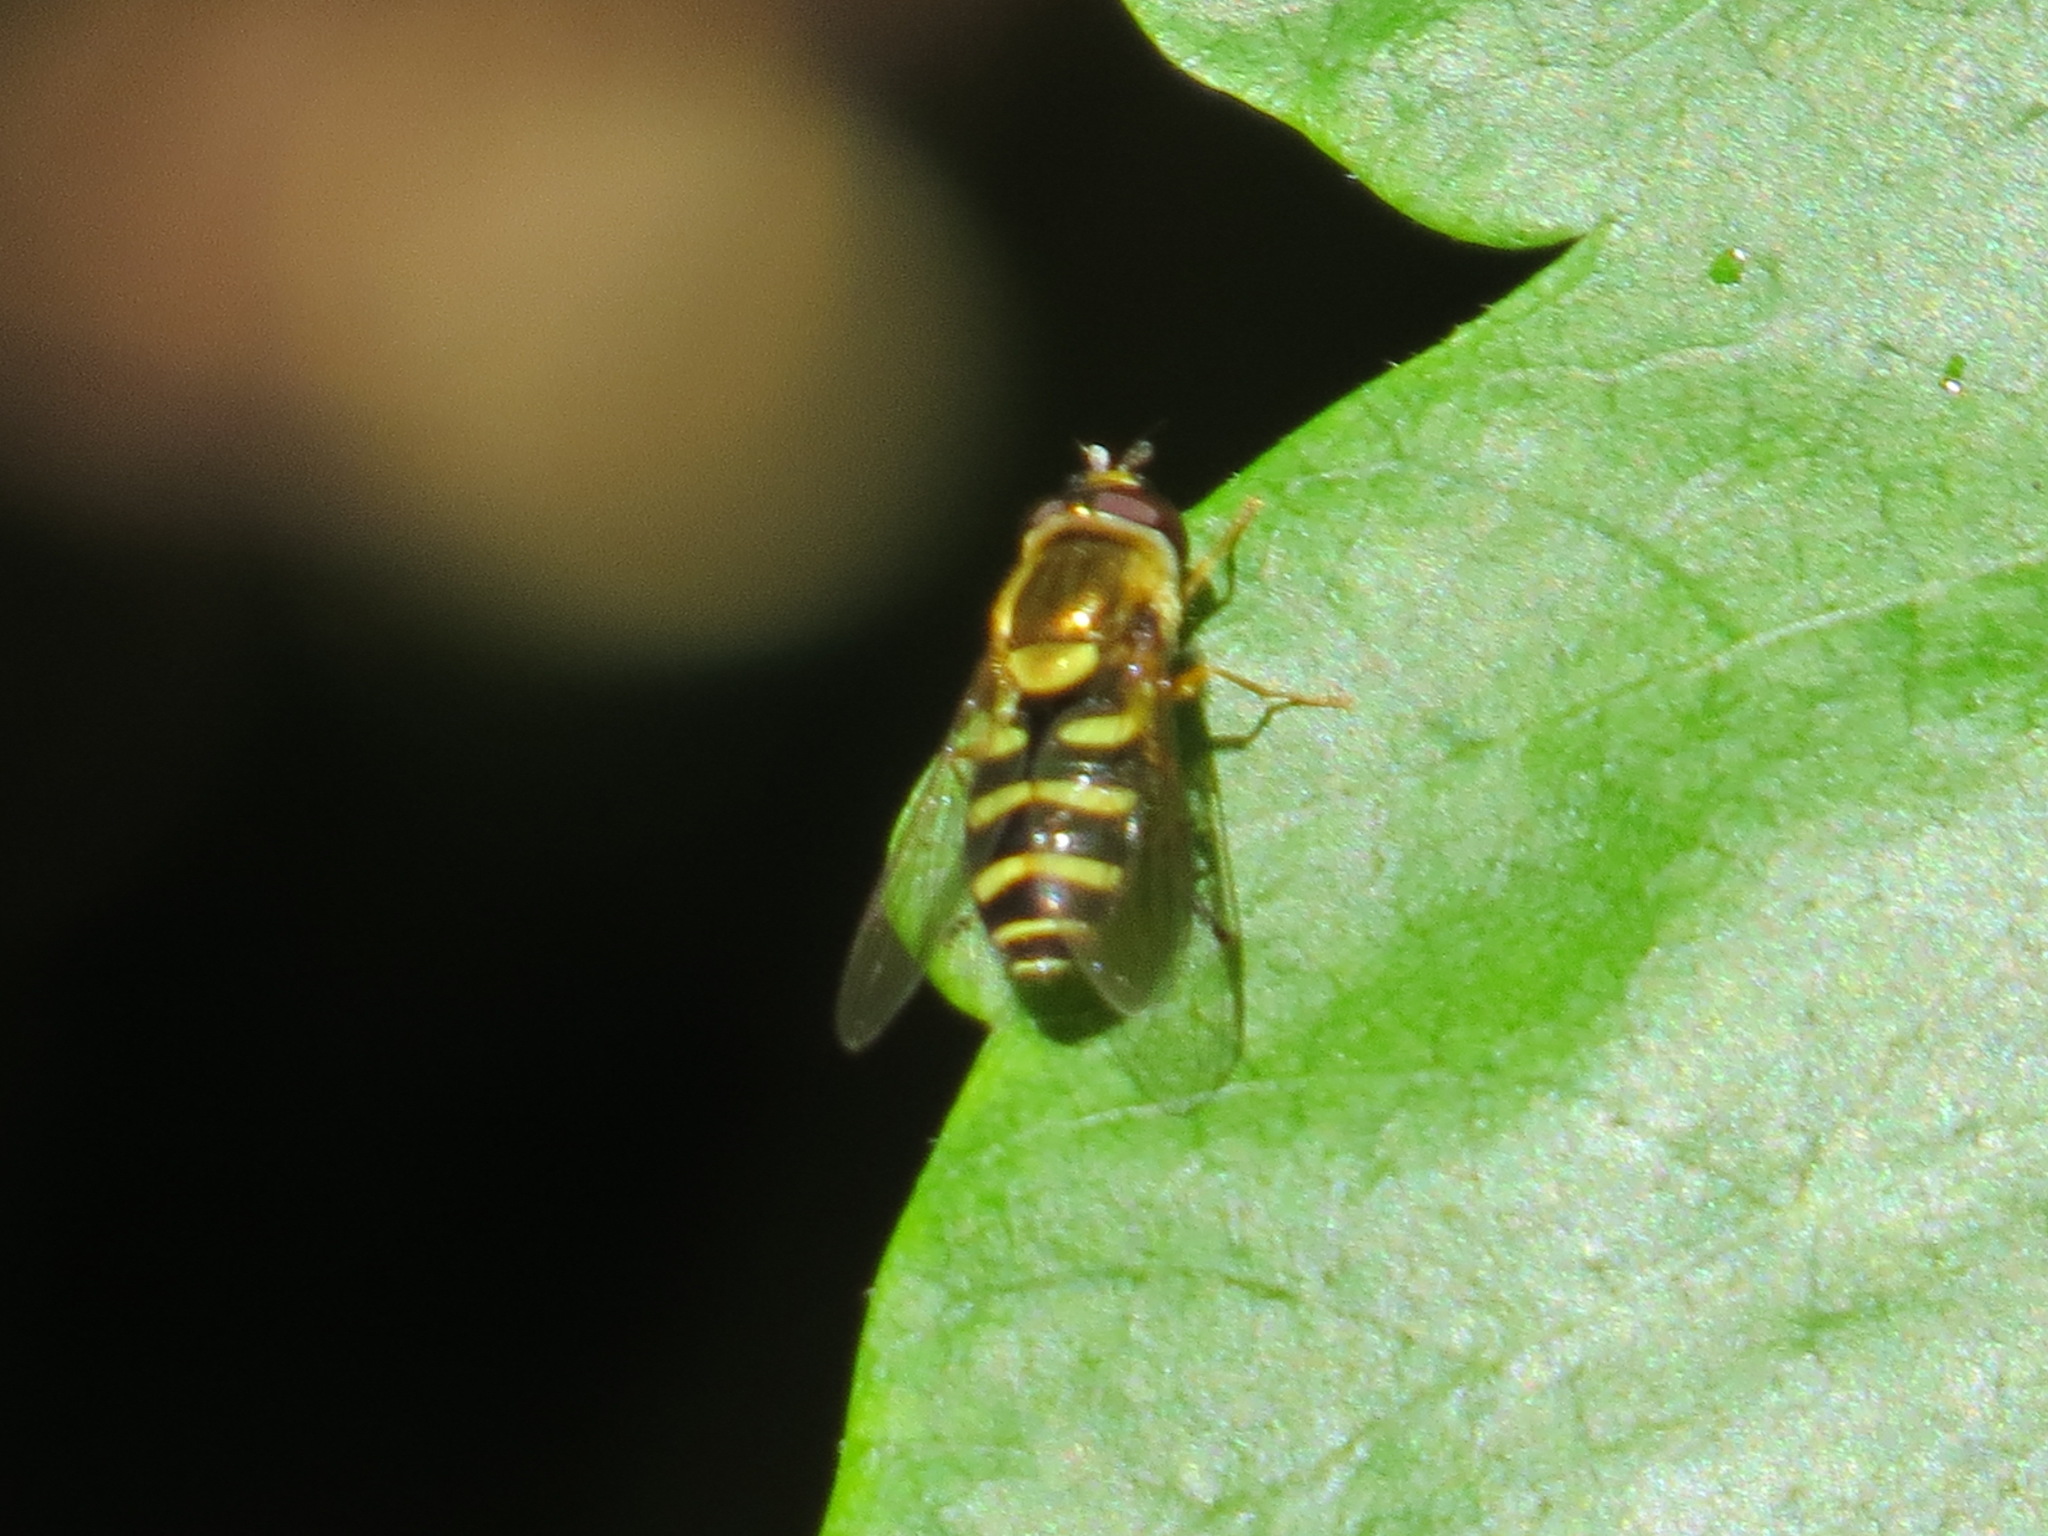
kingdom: Animalia
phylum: Arthropoda
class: Insecta
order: Diptera
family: Syrphidae
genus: Syrphus
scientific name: Syrphus opinator
